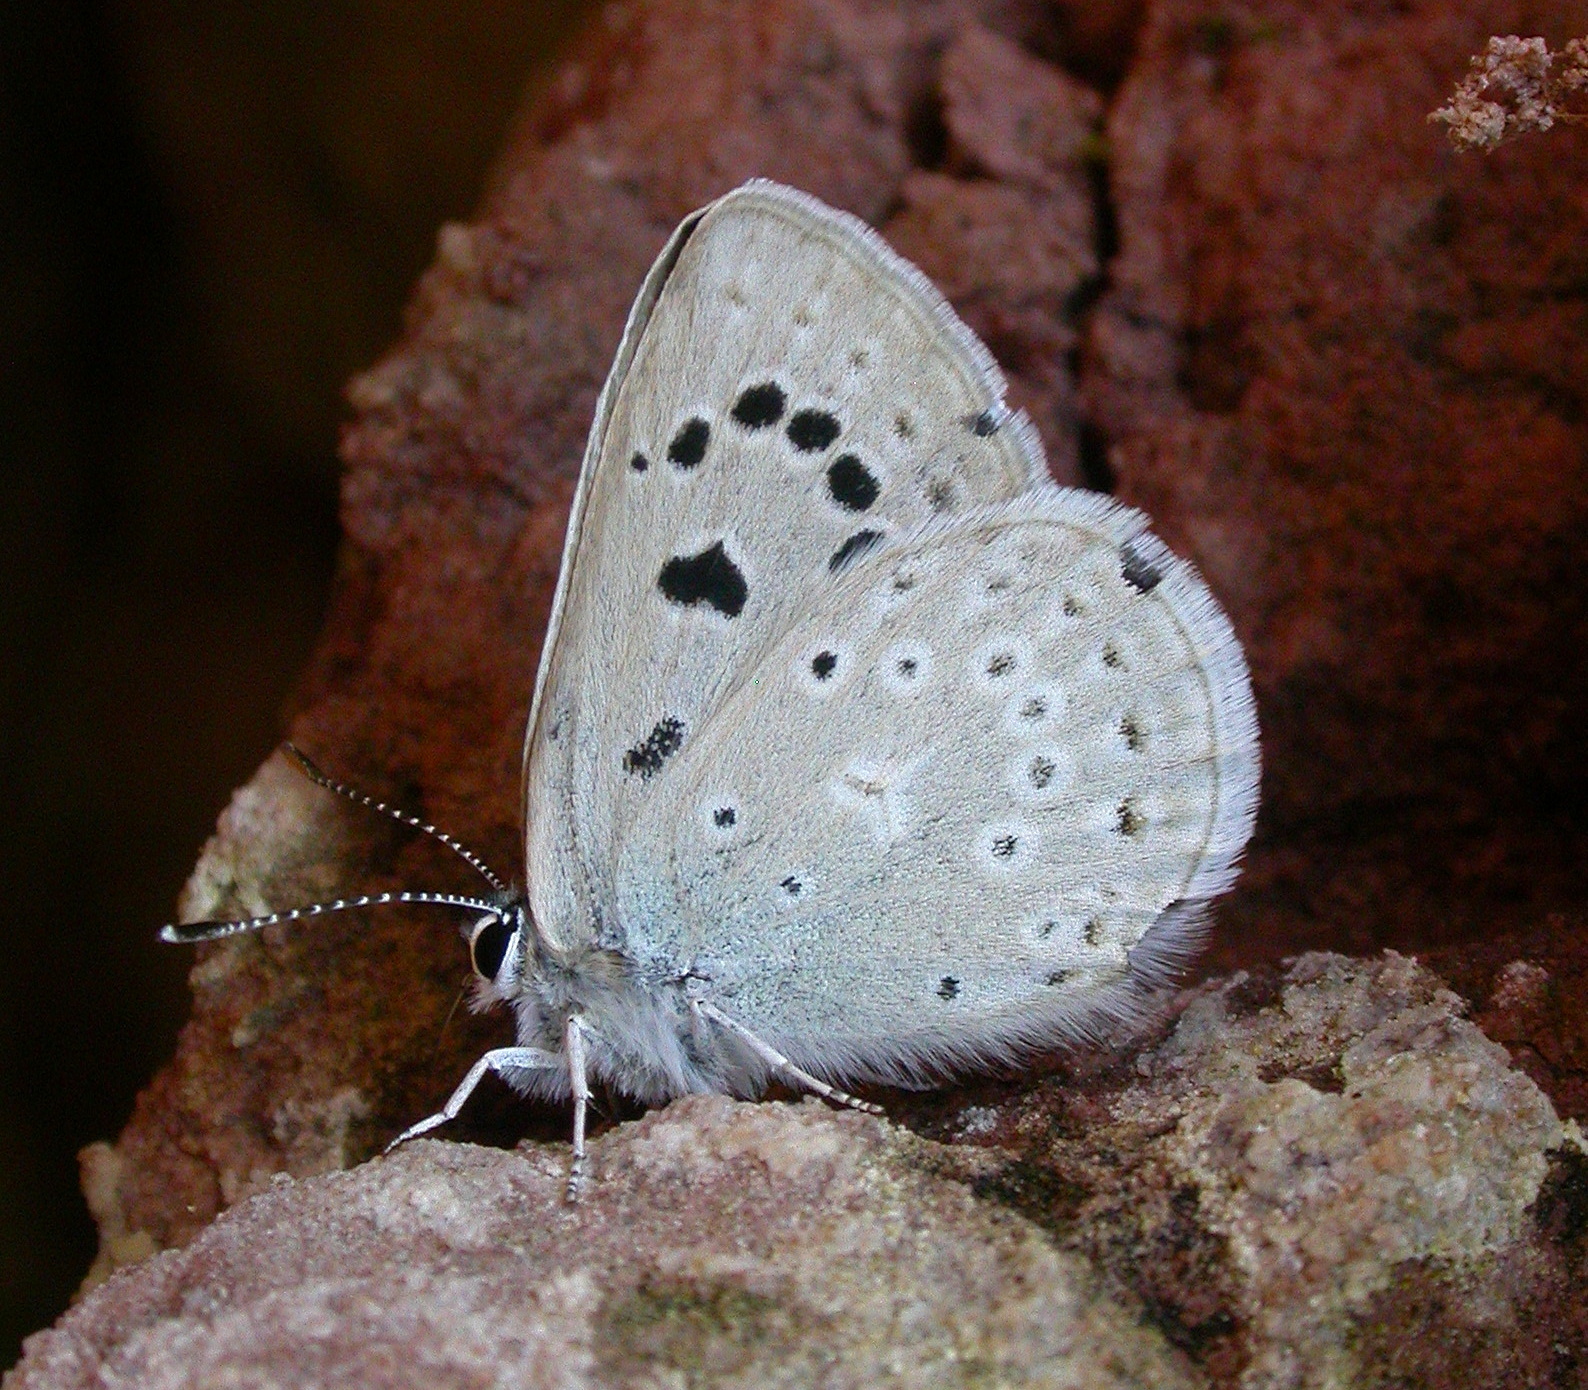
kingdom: Animalia
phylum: Arthropoda
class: Insecta
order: Lepidoptera
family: Lycaenidae
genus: Icaricia
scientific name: Icaricia icarioides
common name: Boisduval's blue
